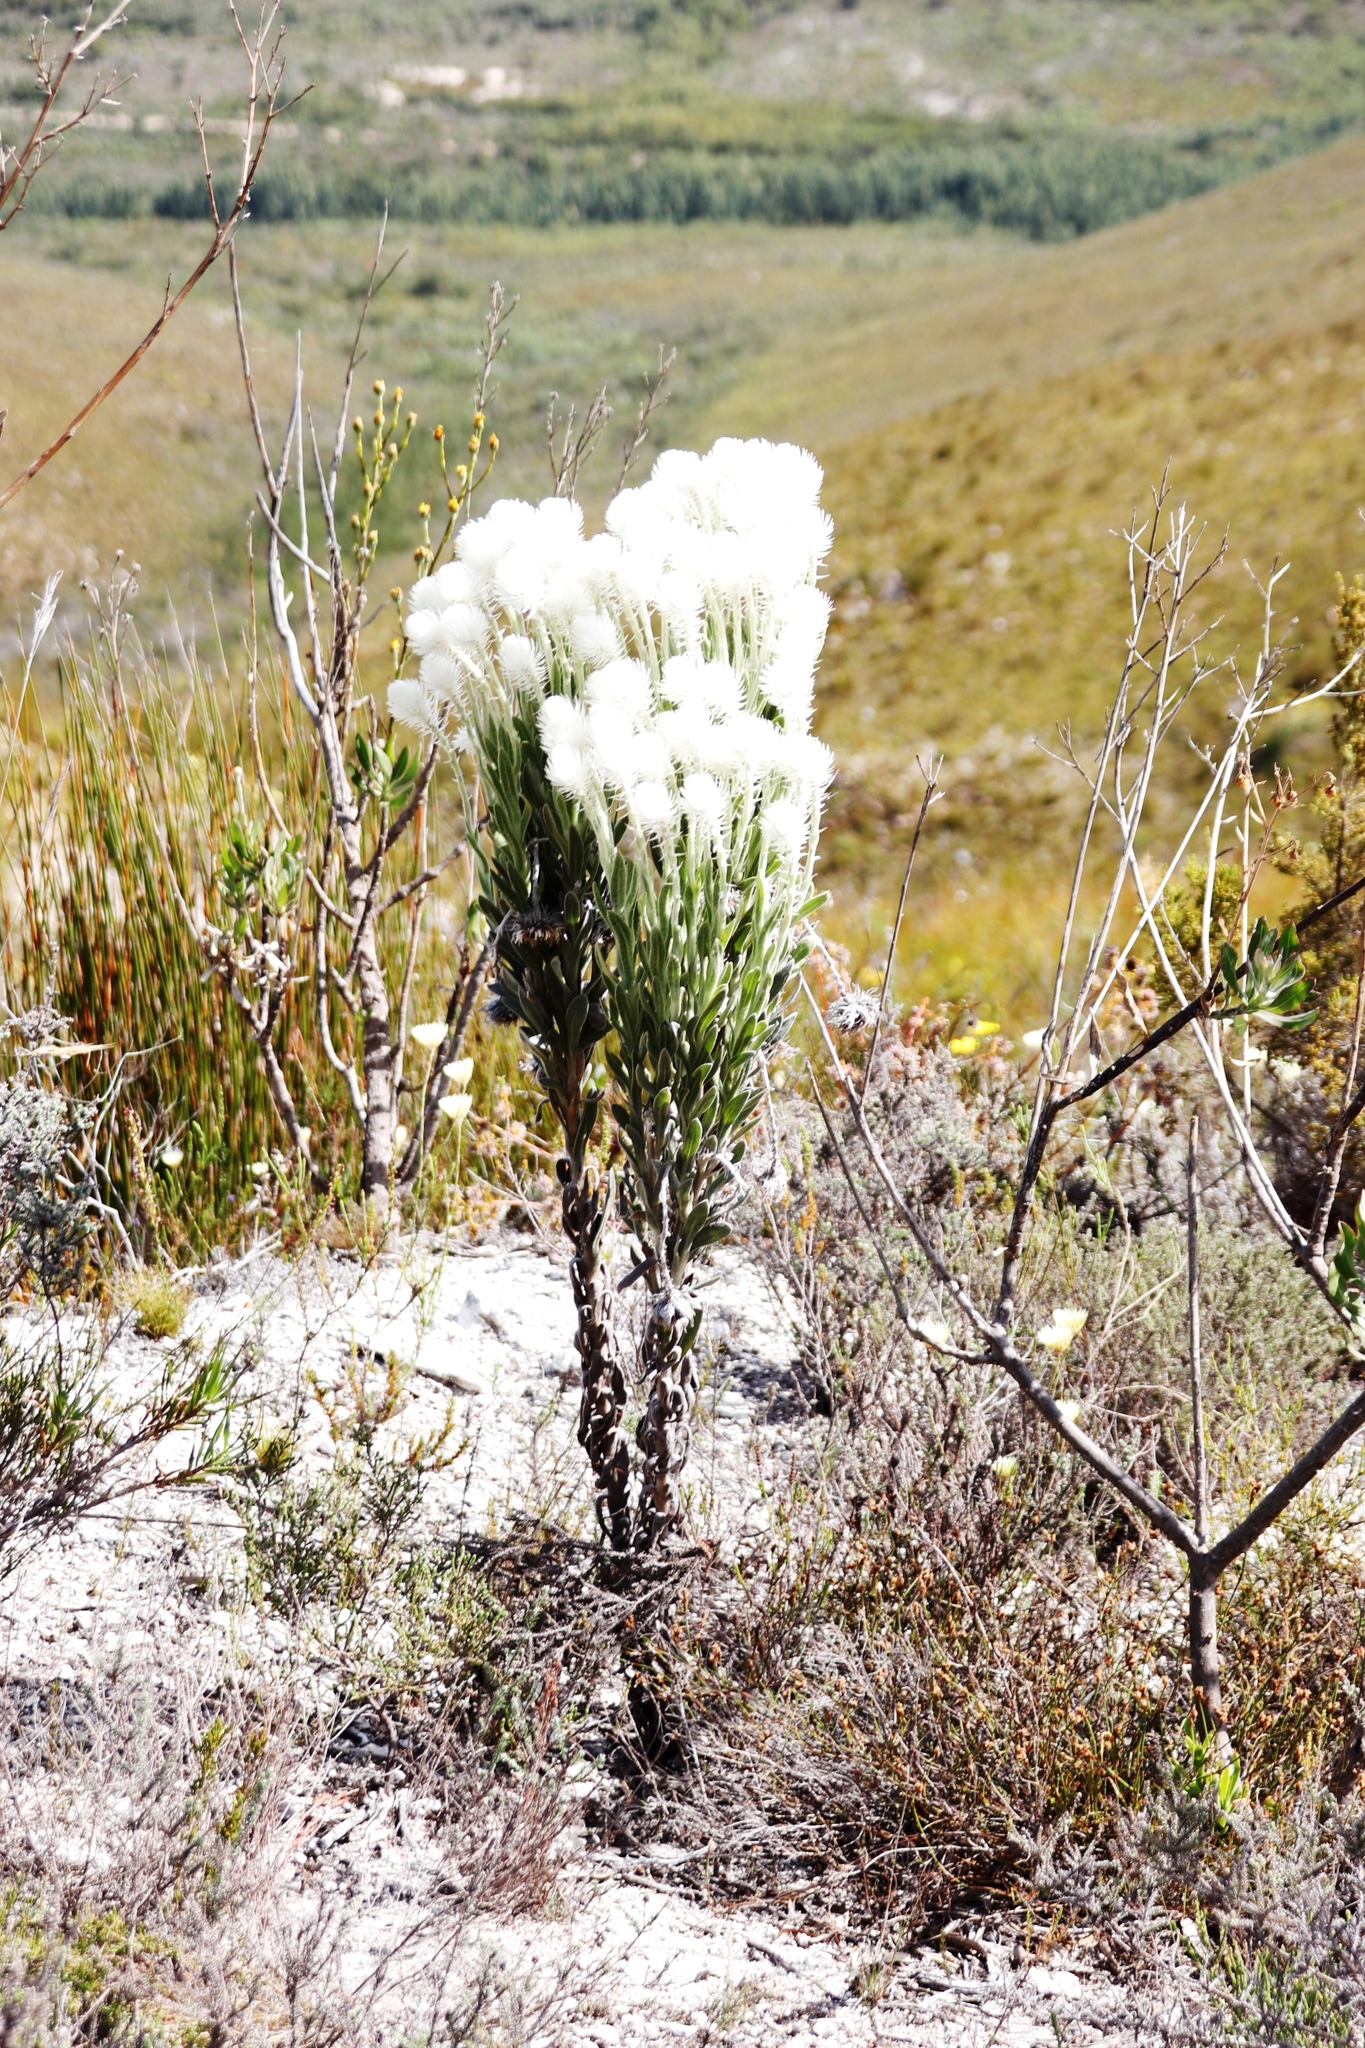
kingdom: Plantae
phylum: Tracheophyta
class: Magnoliopsida
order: Asterales
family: Asteraceae
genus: Syncarpha
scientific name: Syncarpha vestita
